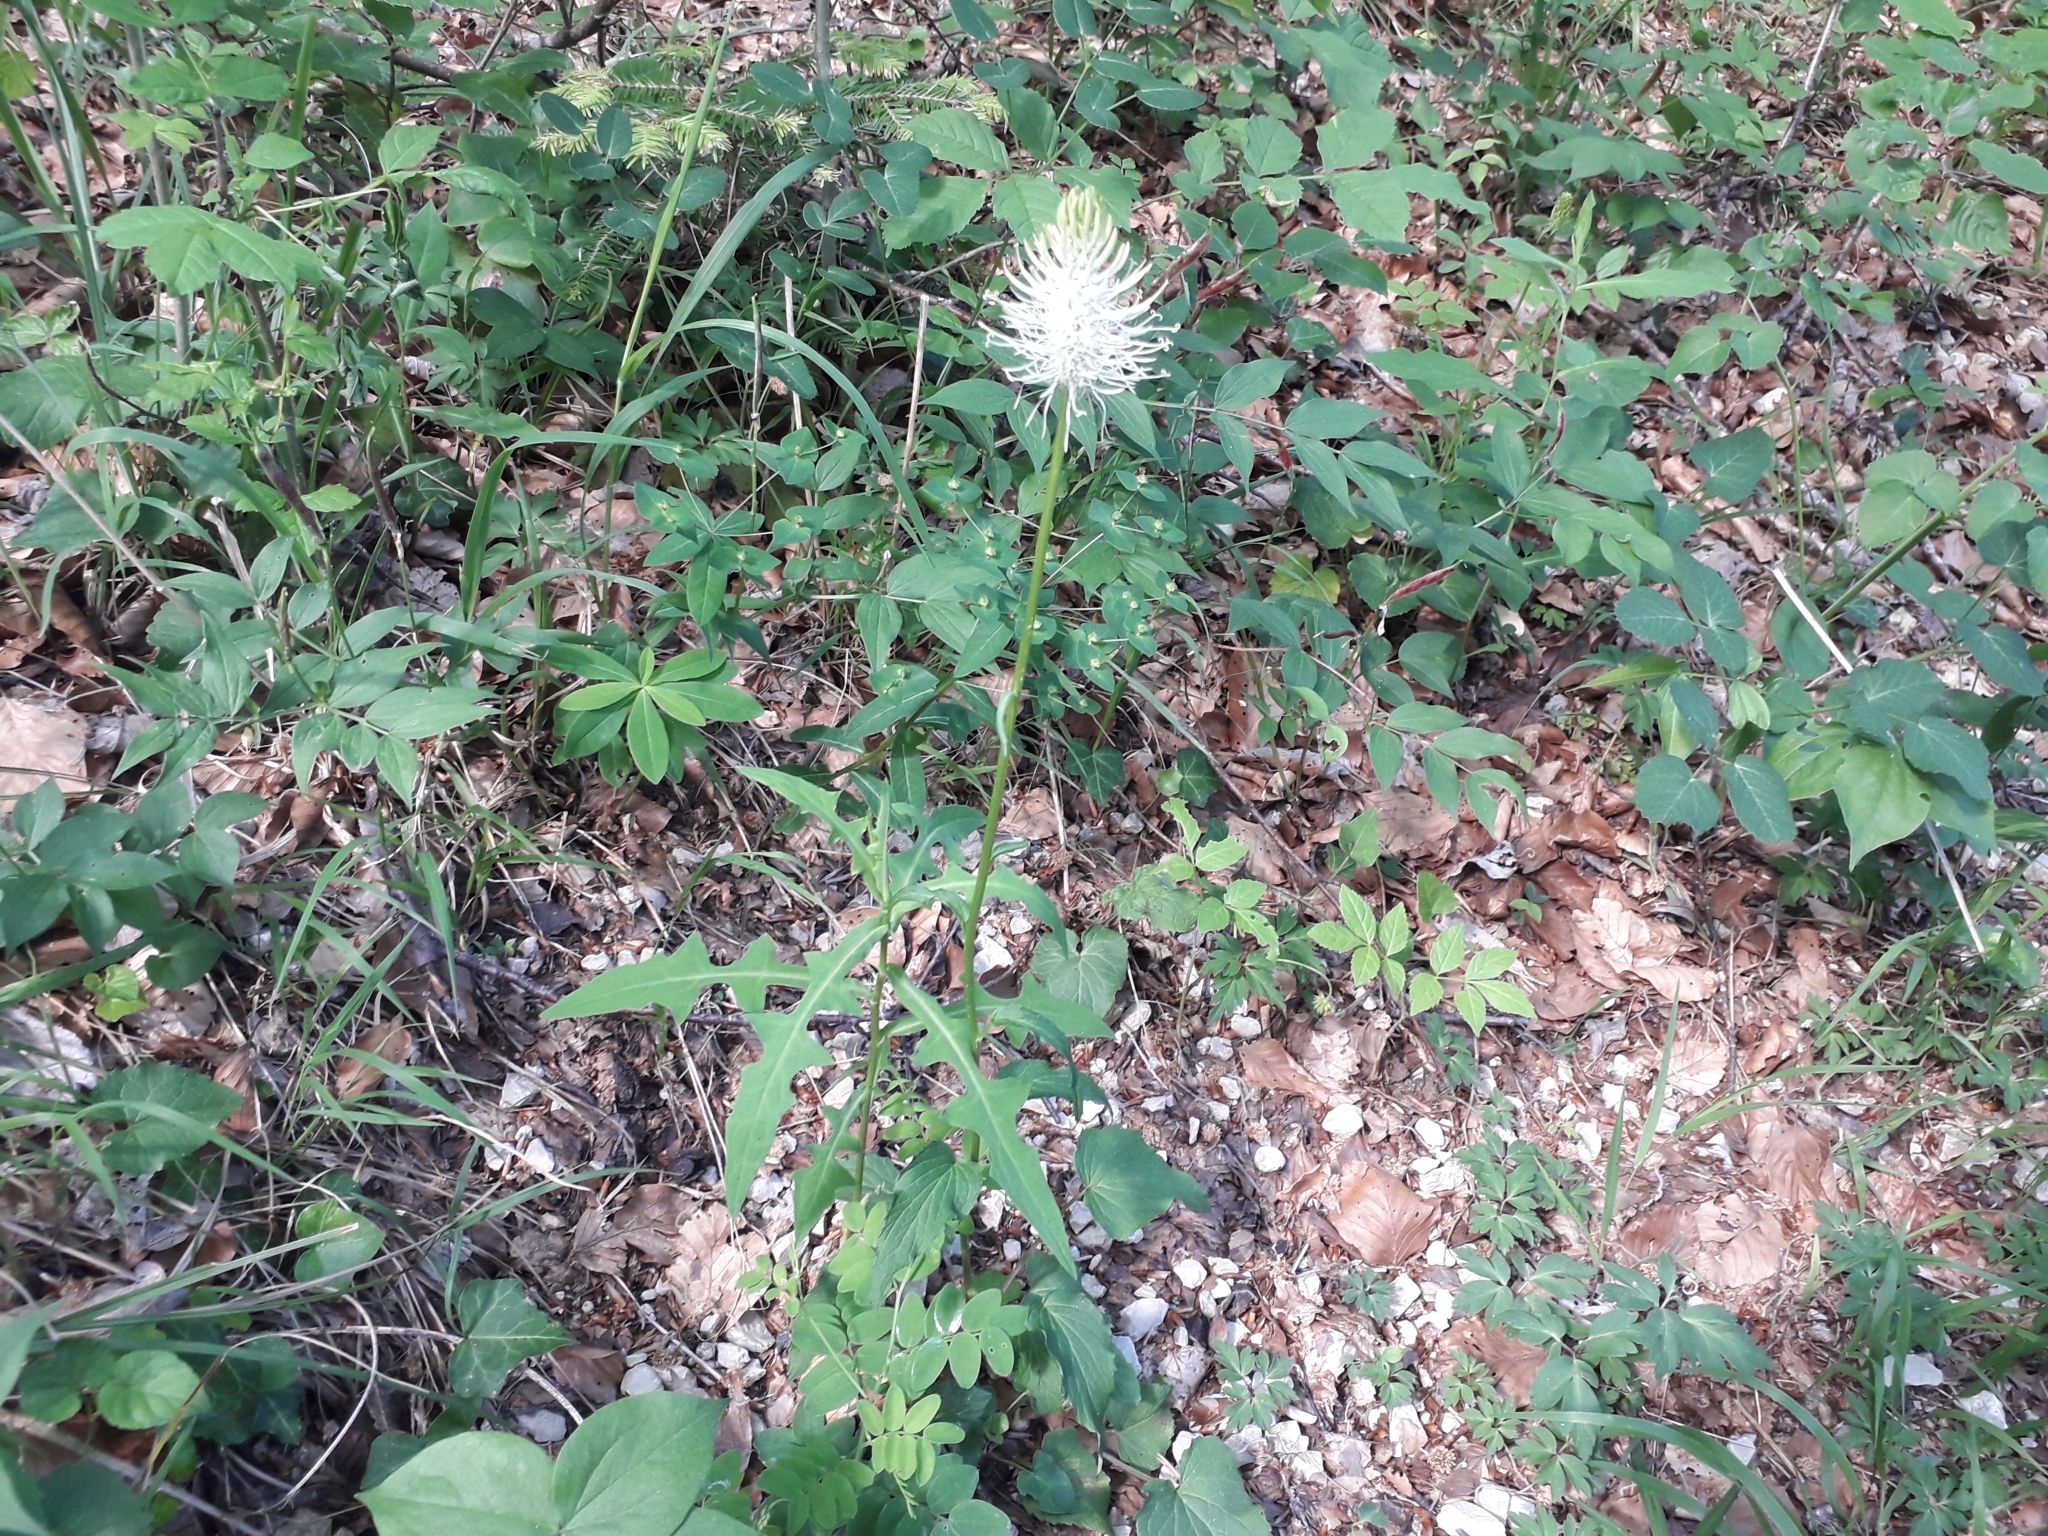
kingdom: Plantae
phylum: Tracheophyta
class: Magnoliopsida
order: Asterales
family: Campanulaceae
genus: Phyteuma
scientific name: Phyteuma spicatum
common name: Spiked rampion
